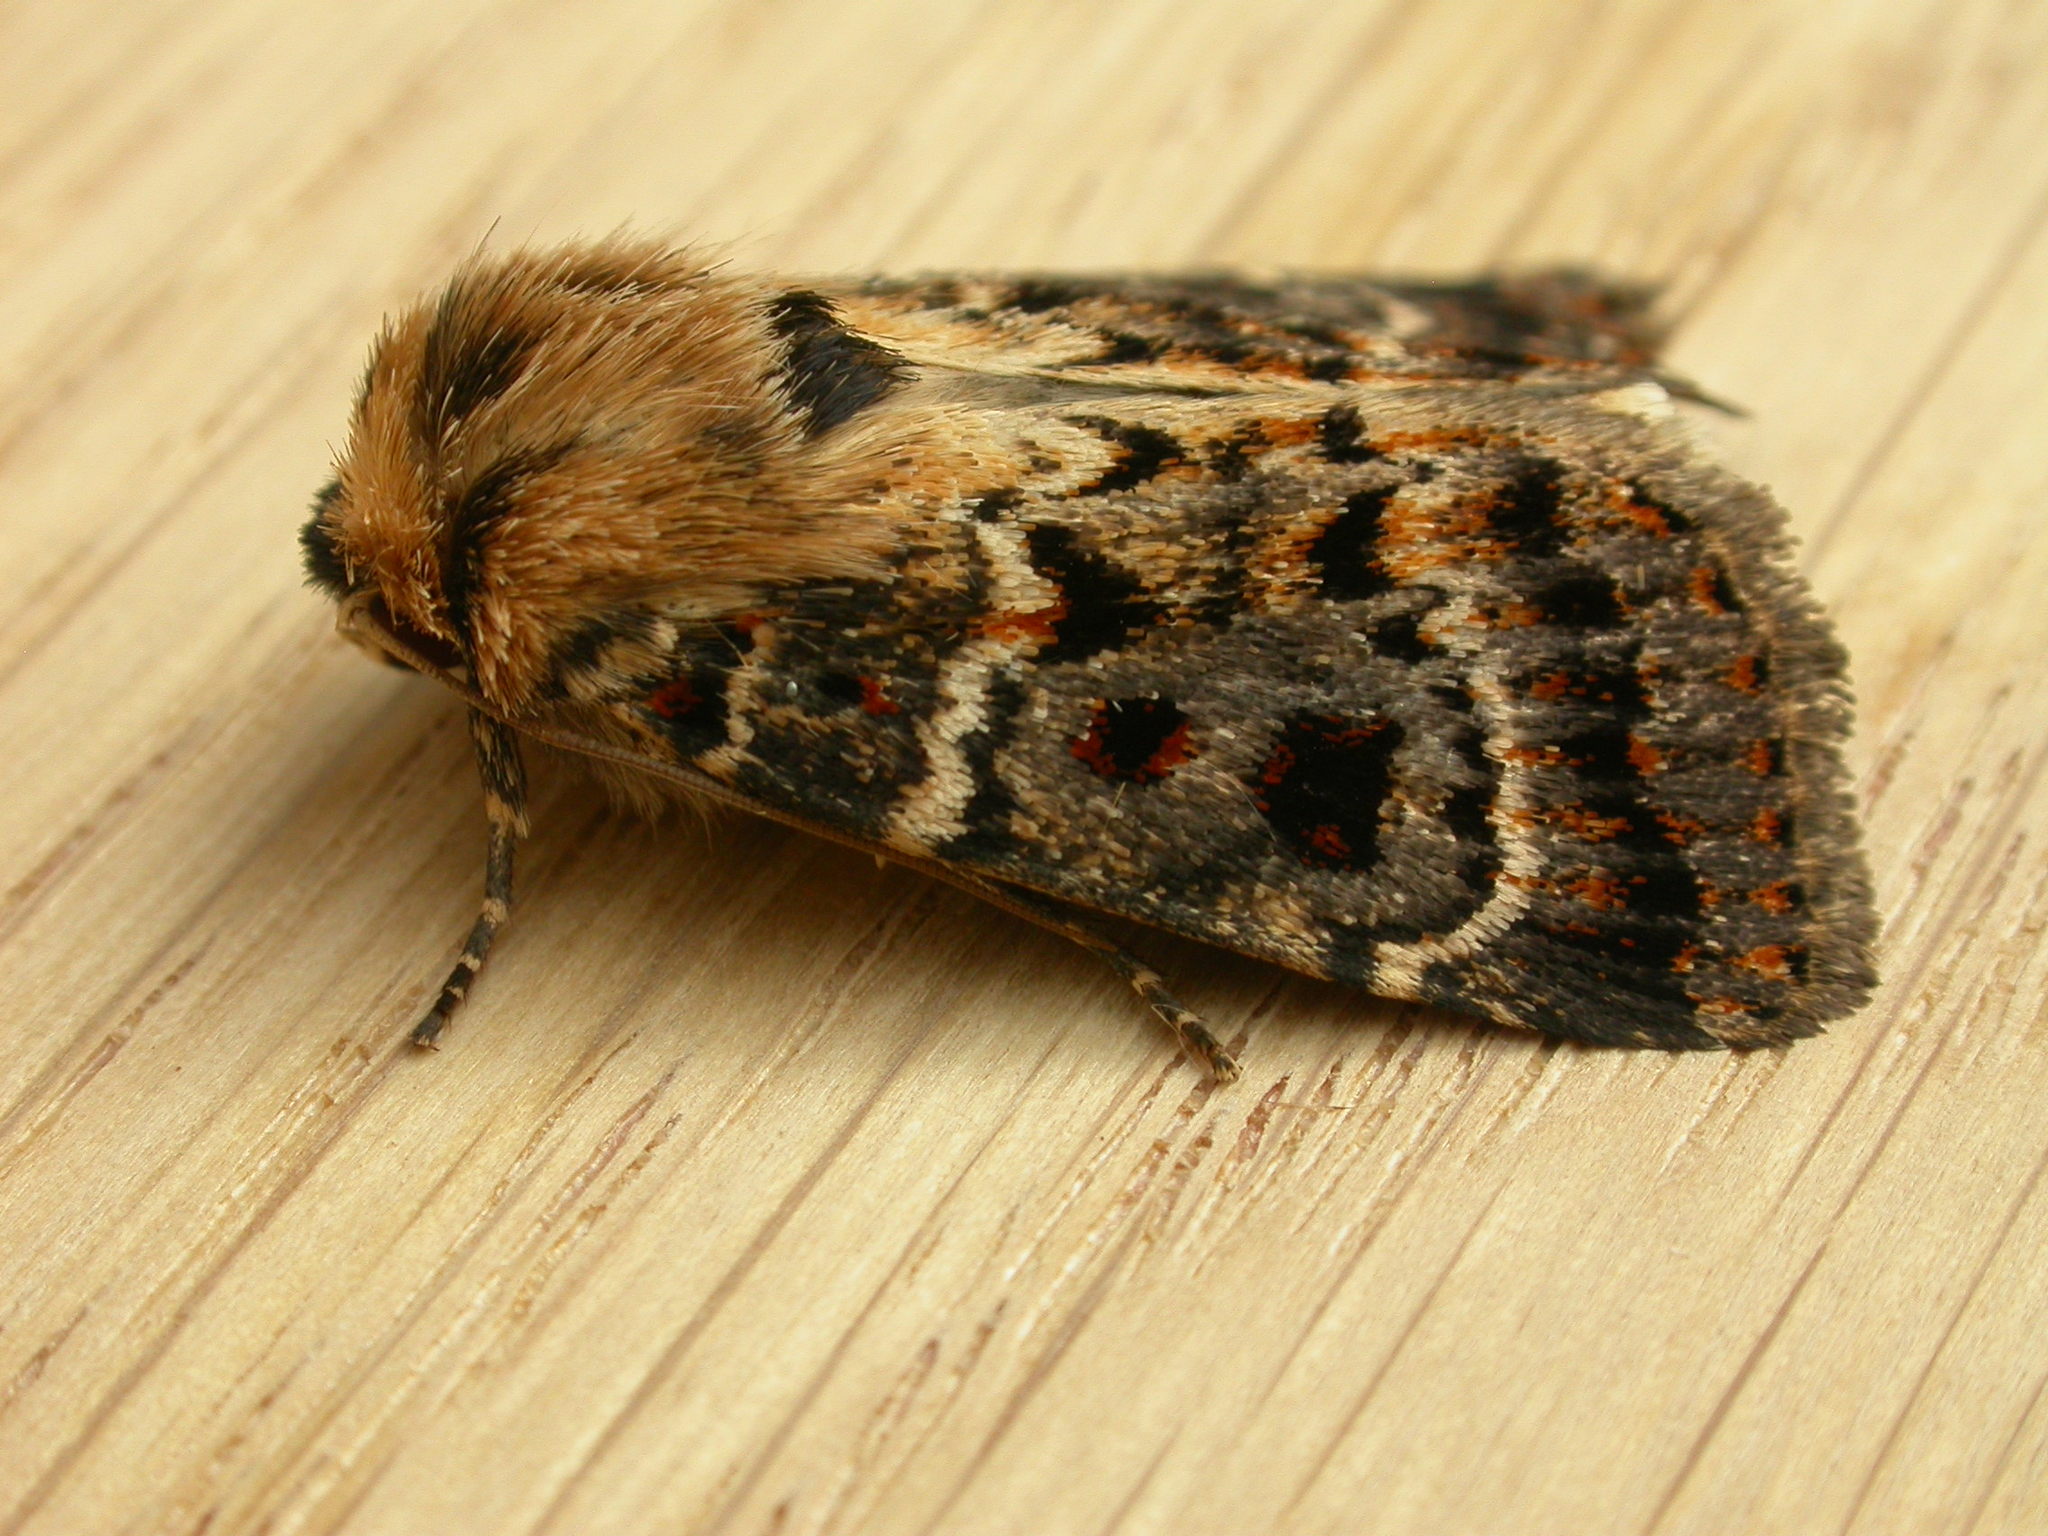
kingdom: Animalia
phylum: Arthropoda
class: Insecta
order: Lepidoptera
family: Noctuidae
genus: Proteuxoa
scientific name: Proteuxoa sanguinipuncta
